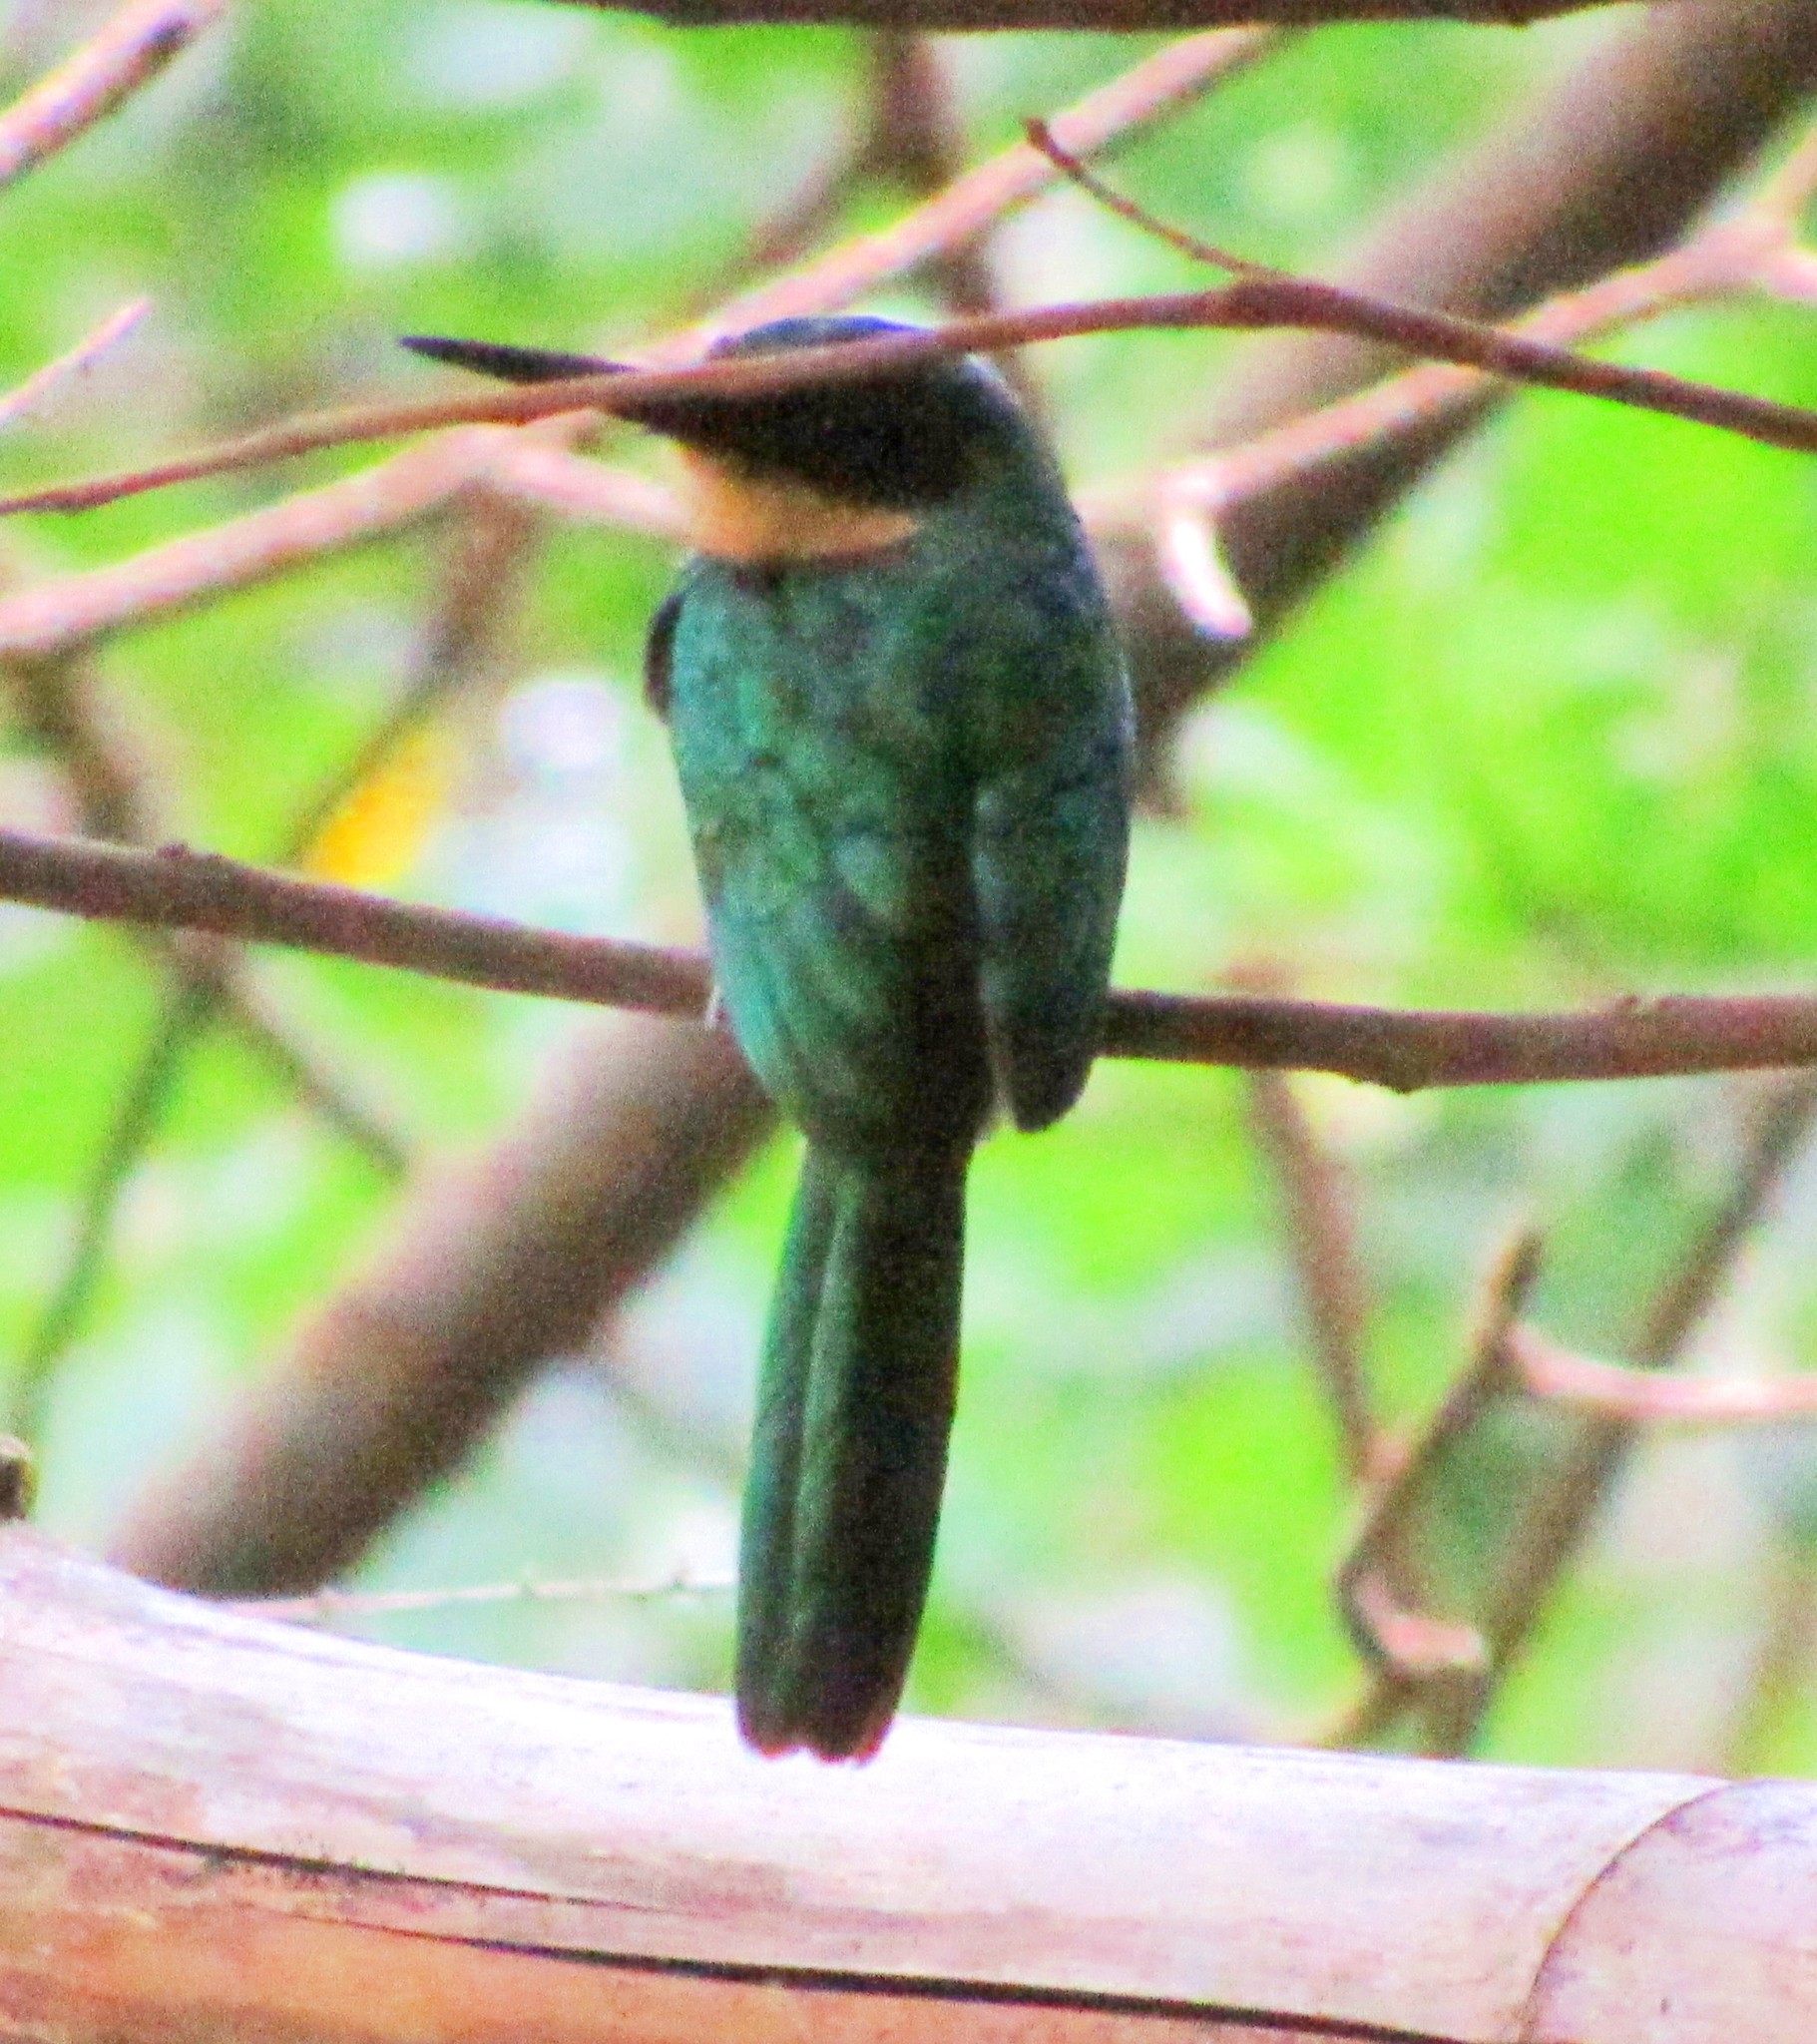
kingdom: Animalia
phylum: Chordata
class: Aves
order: Piciformes
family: Galbulidae
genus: Galbula
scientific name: Galbula ruficauda
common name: Rufous-tailed jacamar
